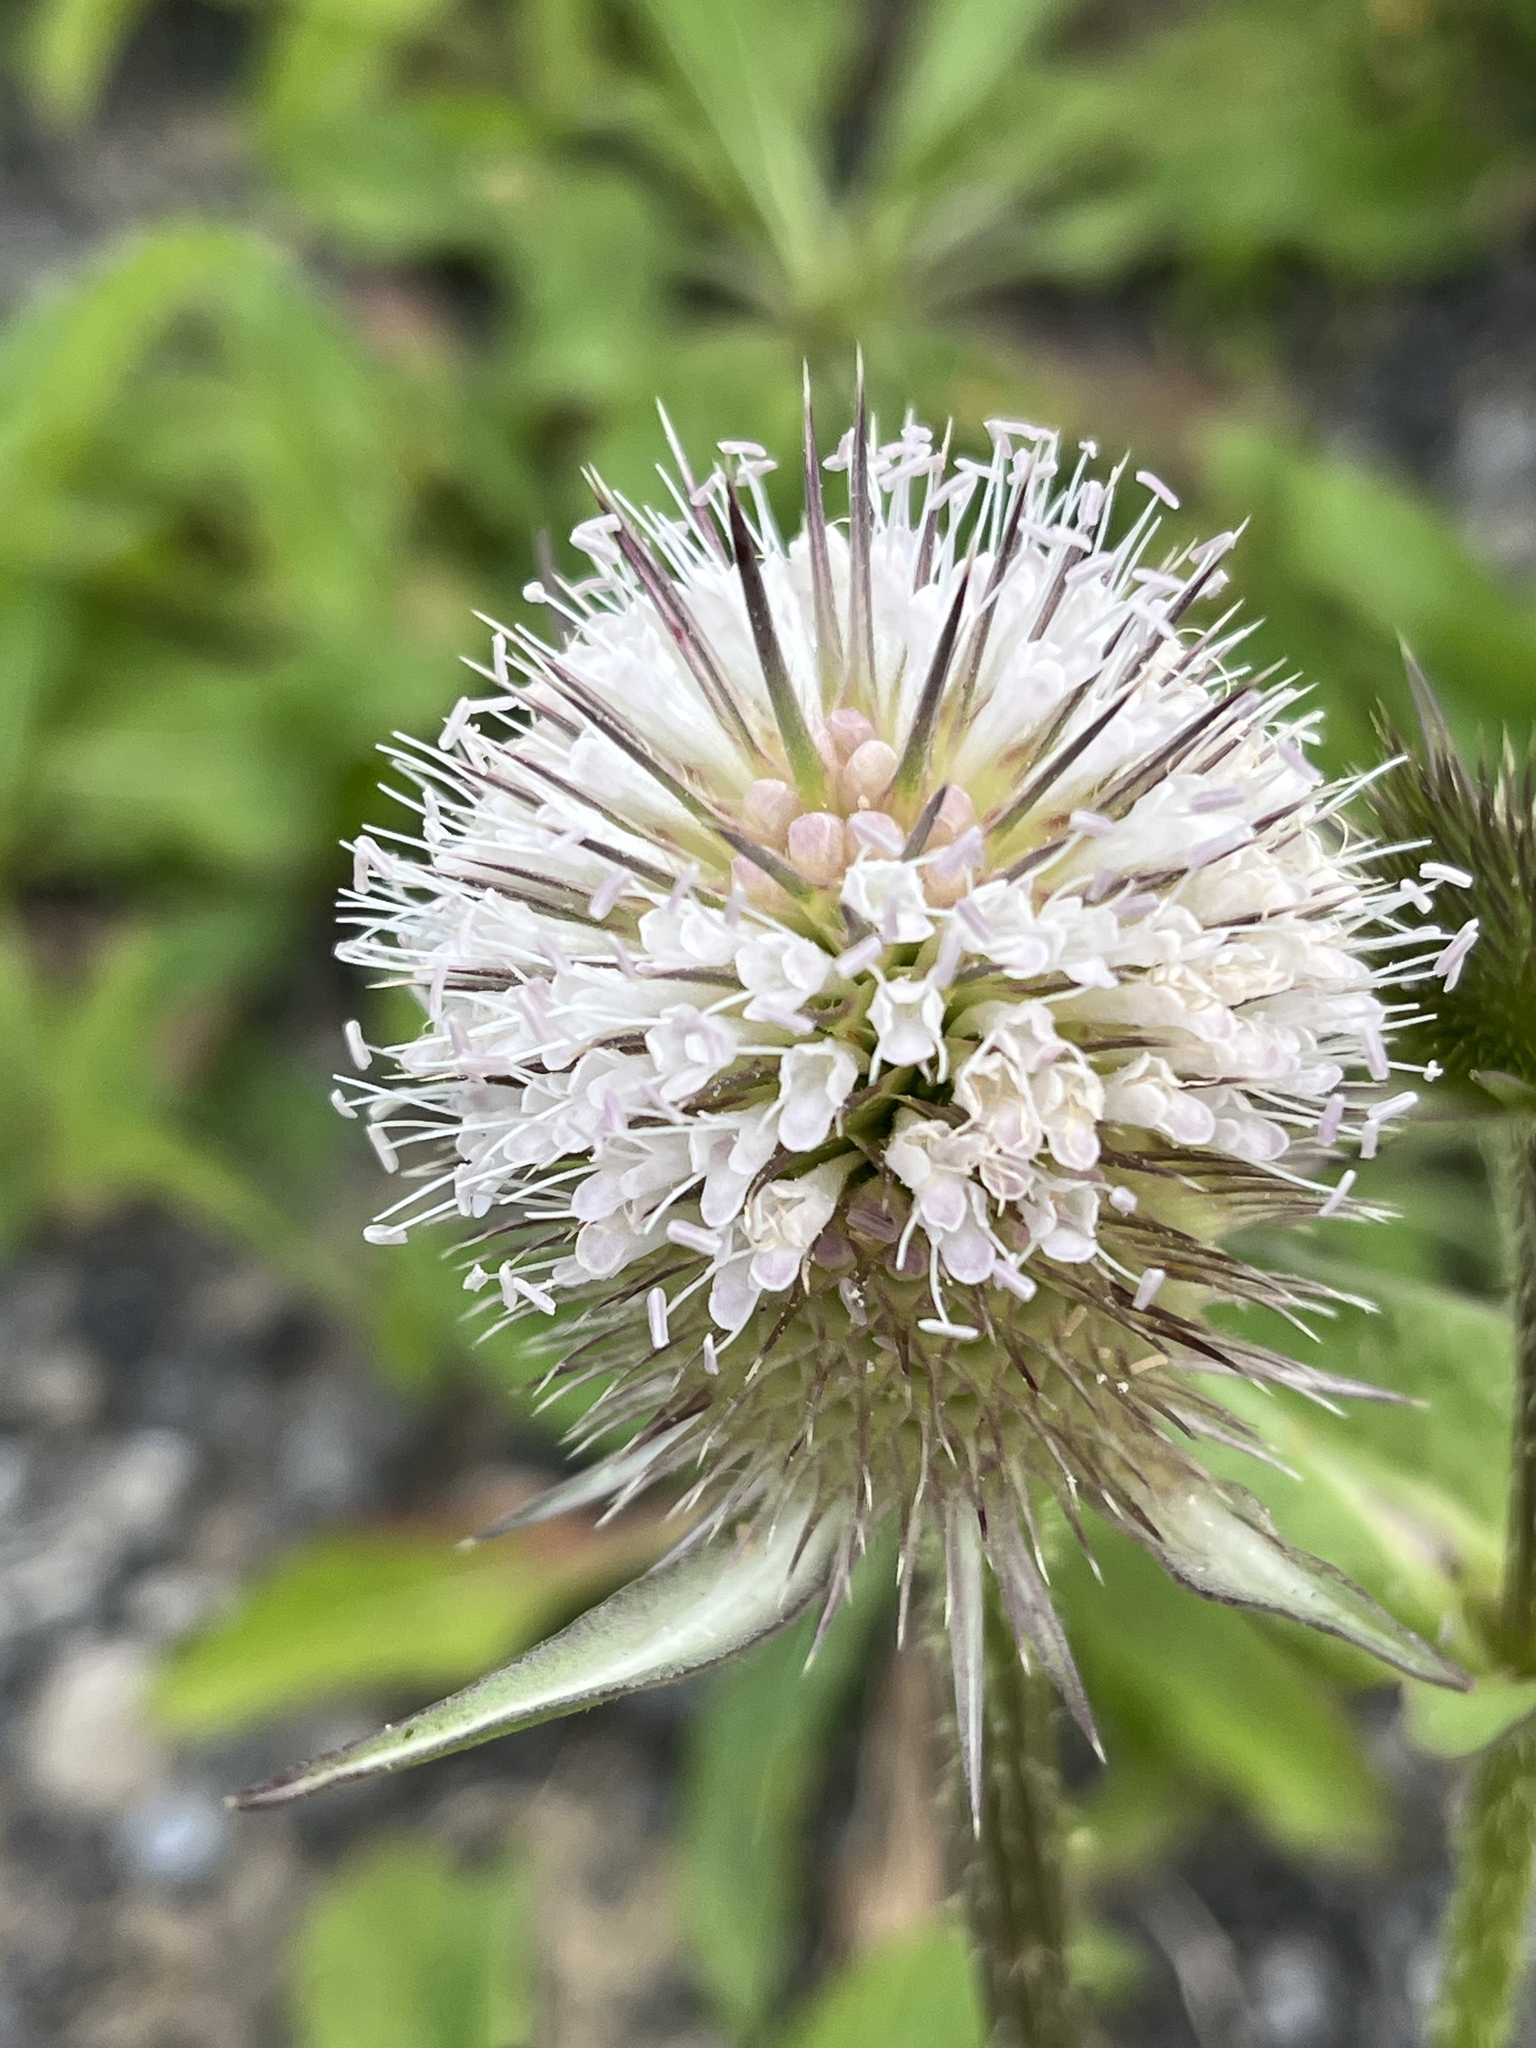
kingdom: Plantae
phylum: Tracheophyta
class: Magnoliopsida
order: Dipsacales
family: Caprifoliaceae
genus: Dipsacus
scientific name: Dipsacus laciniatus
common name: Cut-leaved teasel
